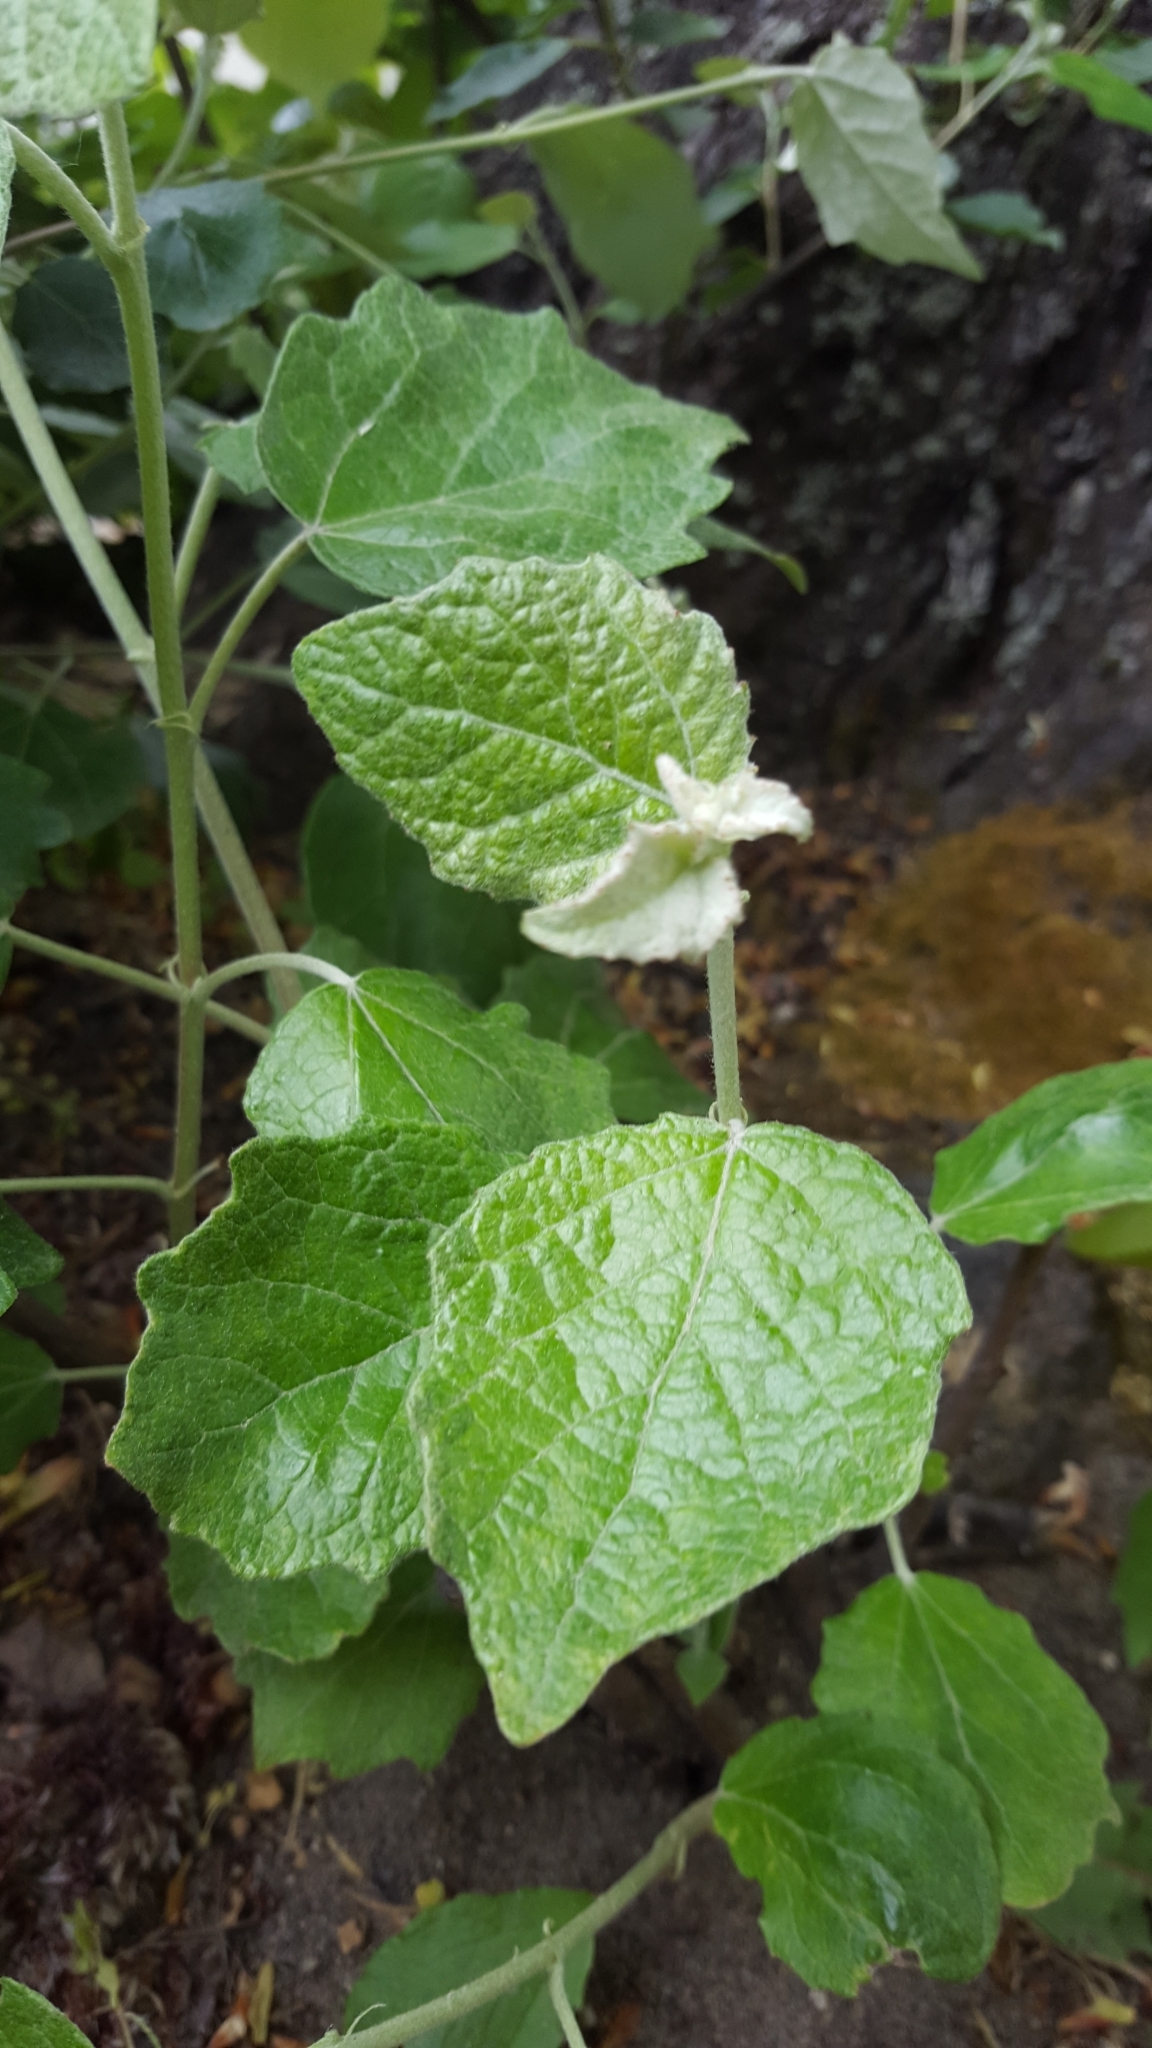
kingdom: Plantae
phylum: Tracheophyta
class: Magnoliopsida
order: Malpighiales
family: Salicaceae
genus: Populus
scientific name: Populus alba
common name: White poplar
